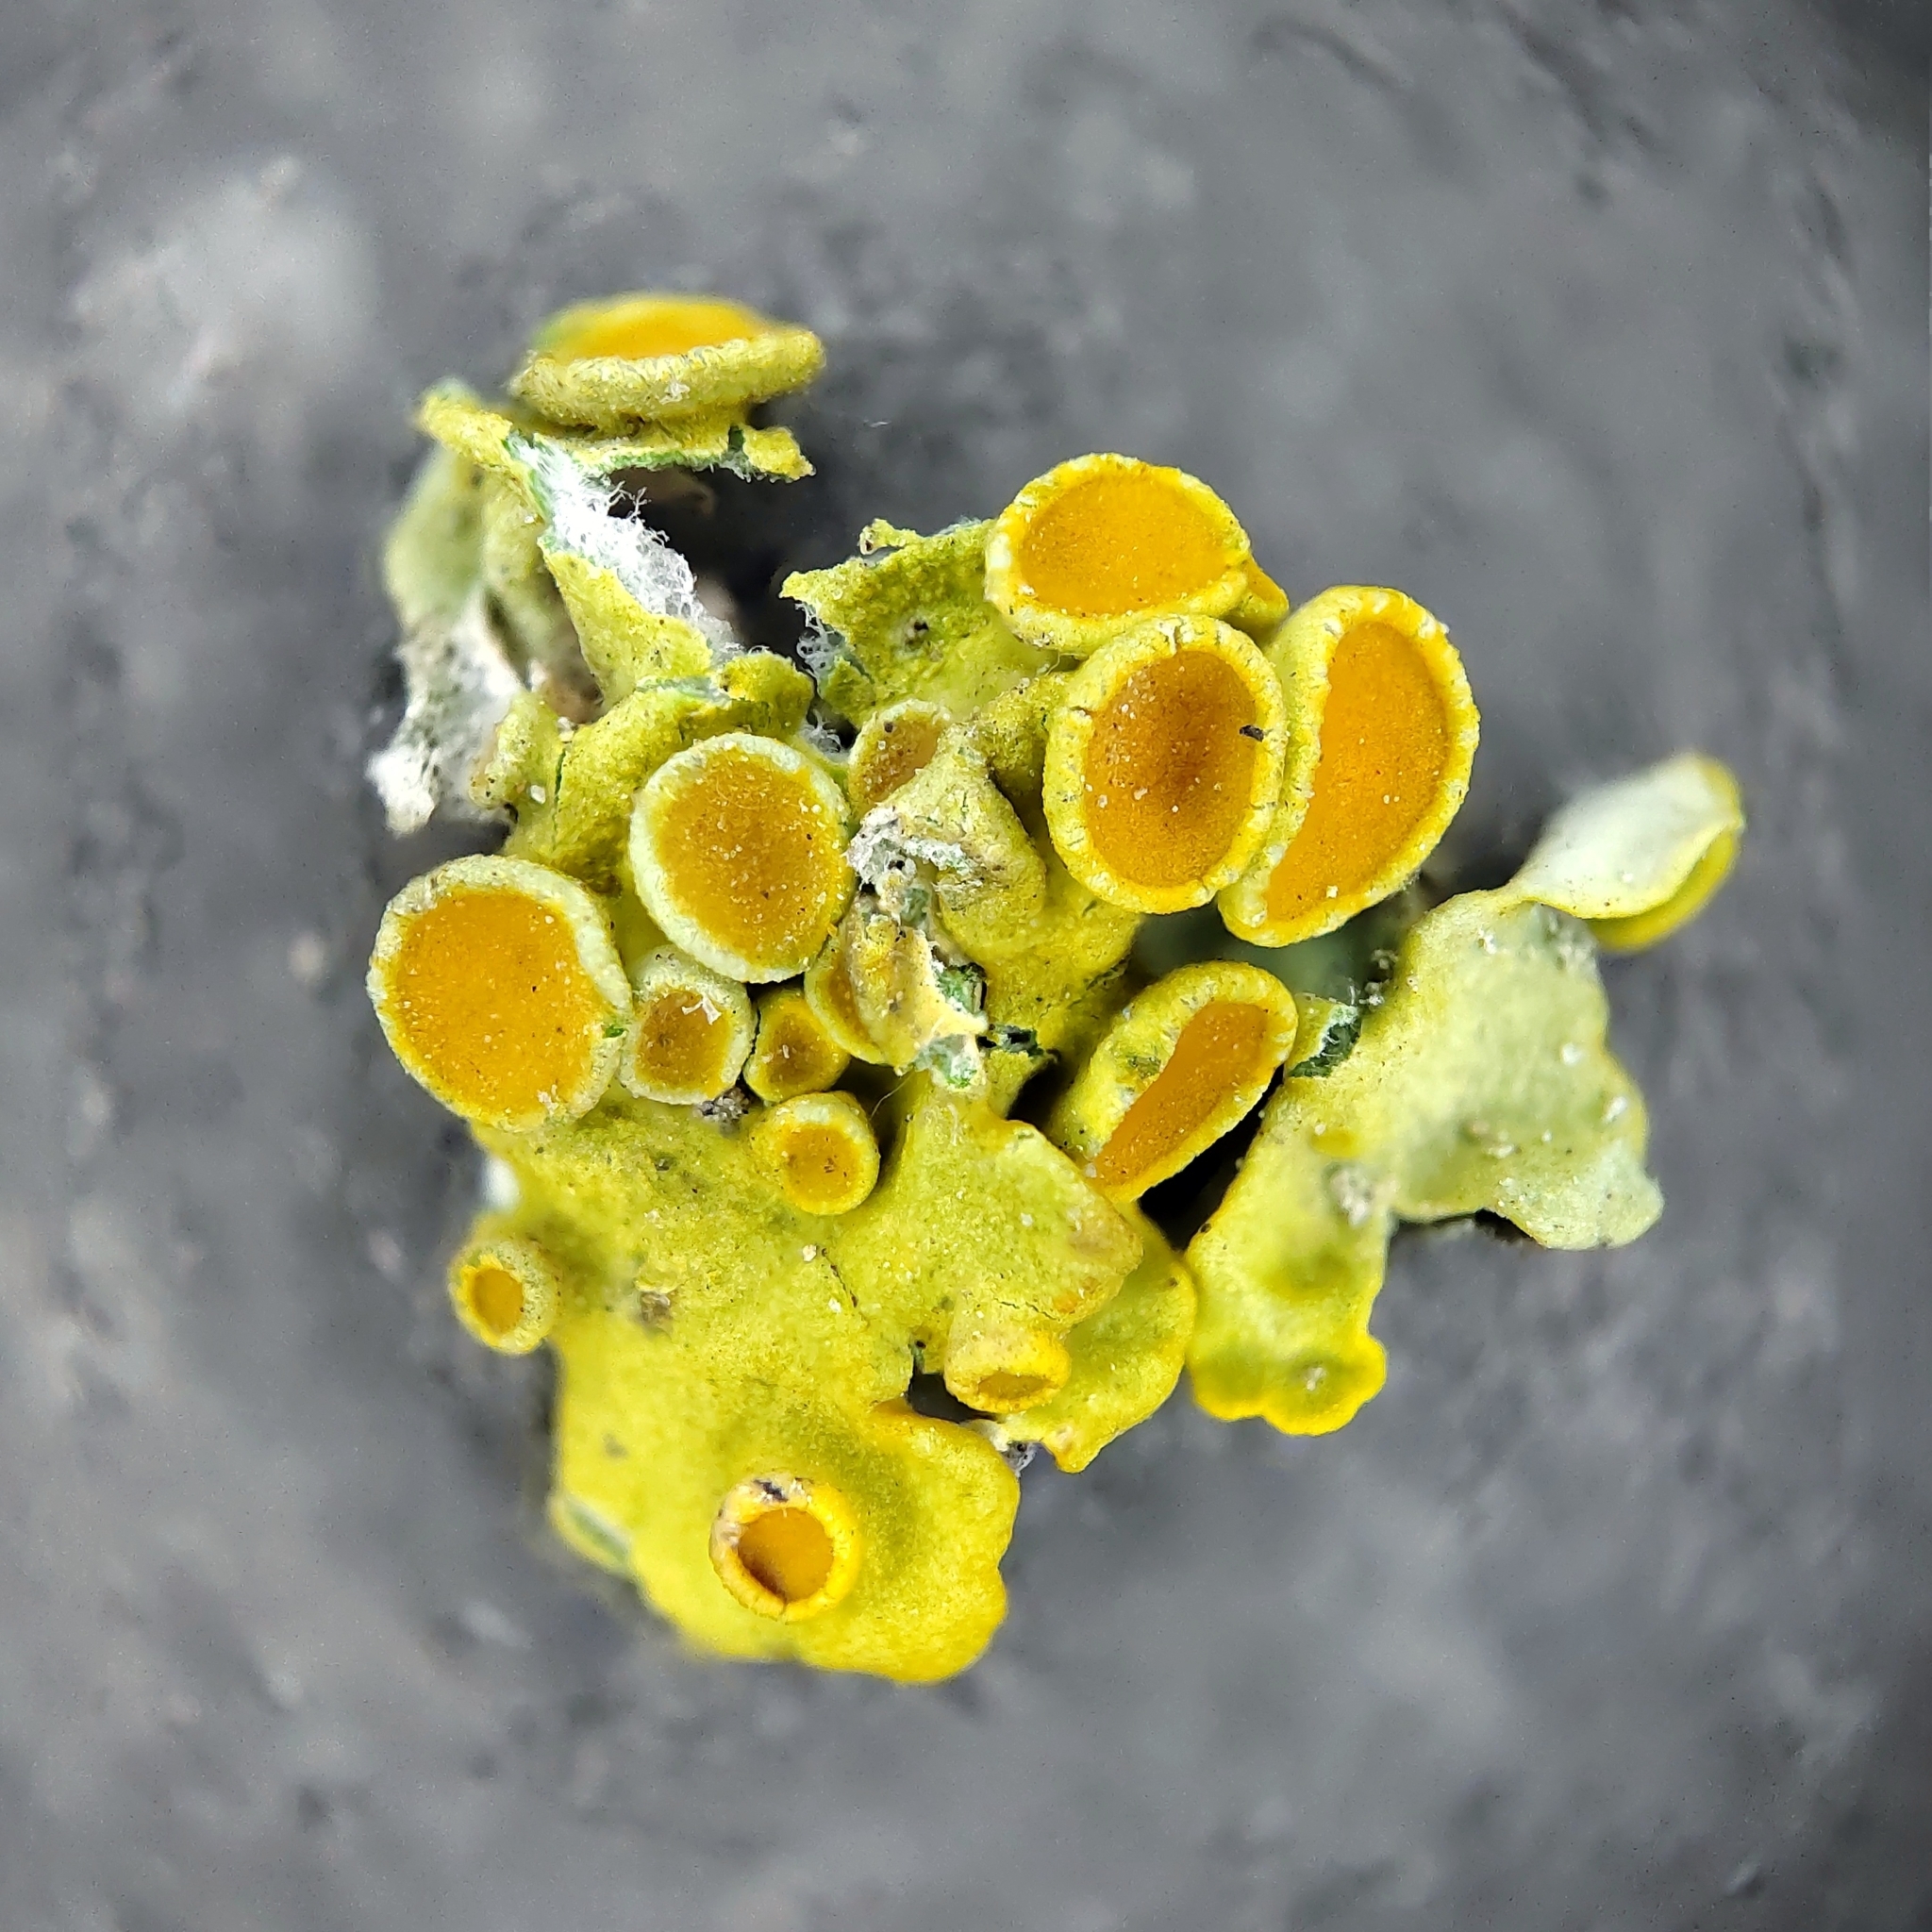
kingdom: Fungi
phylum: Ascomycota
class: Lecanoromycetes
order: Teloschistales
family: Teloschistaceae
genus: Xanthoria
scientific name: Xanthoria parietina
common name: Common orange lichen
